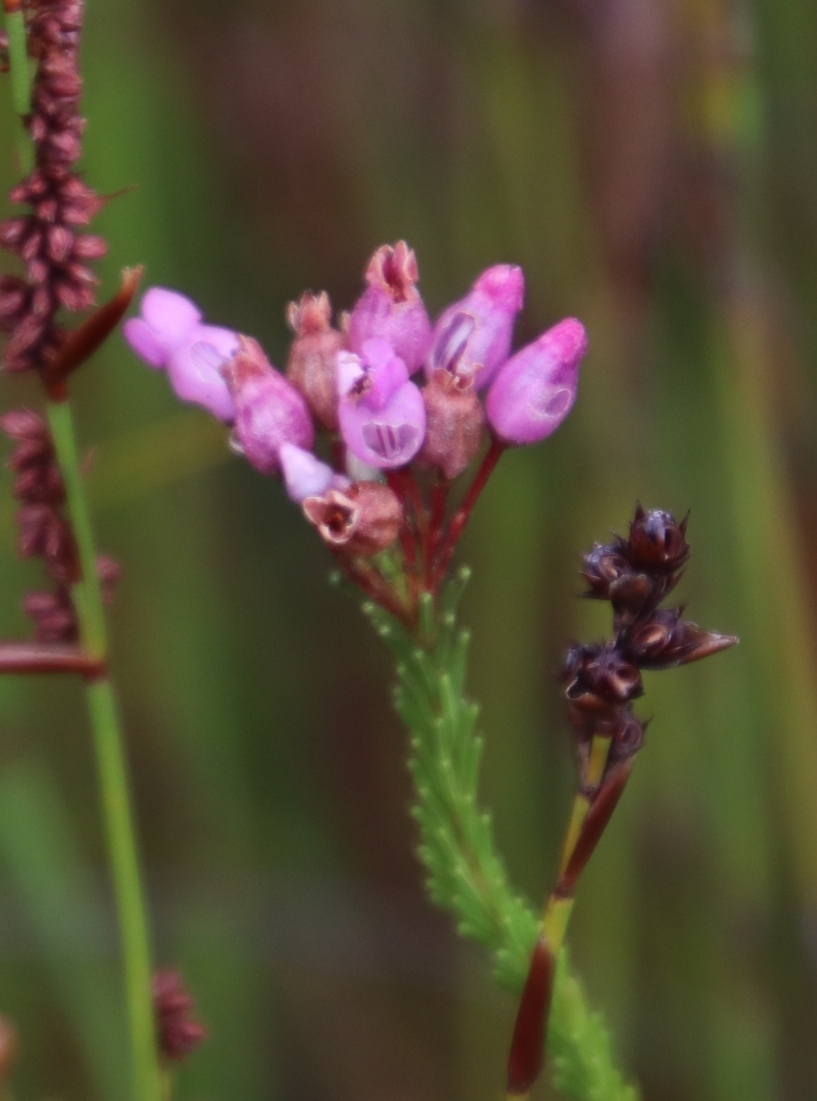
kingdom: Plantae
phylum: Tracheophyta
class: Magnoliopsida
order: Ericales
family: Ericaceae
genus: Erica
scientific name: Erica obliqua
